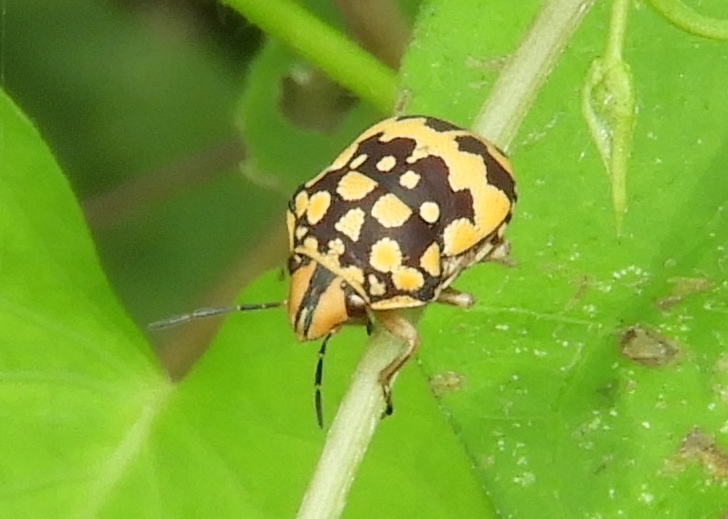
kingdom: Animalia
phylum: Arthropoda
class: Insecta
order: Hemiptera
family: Scutelleridae
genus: Orsilochides
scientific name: Orsilochides
